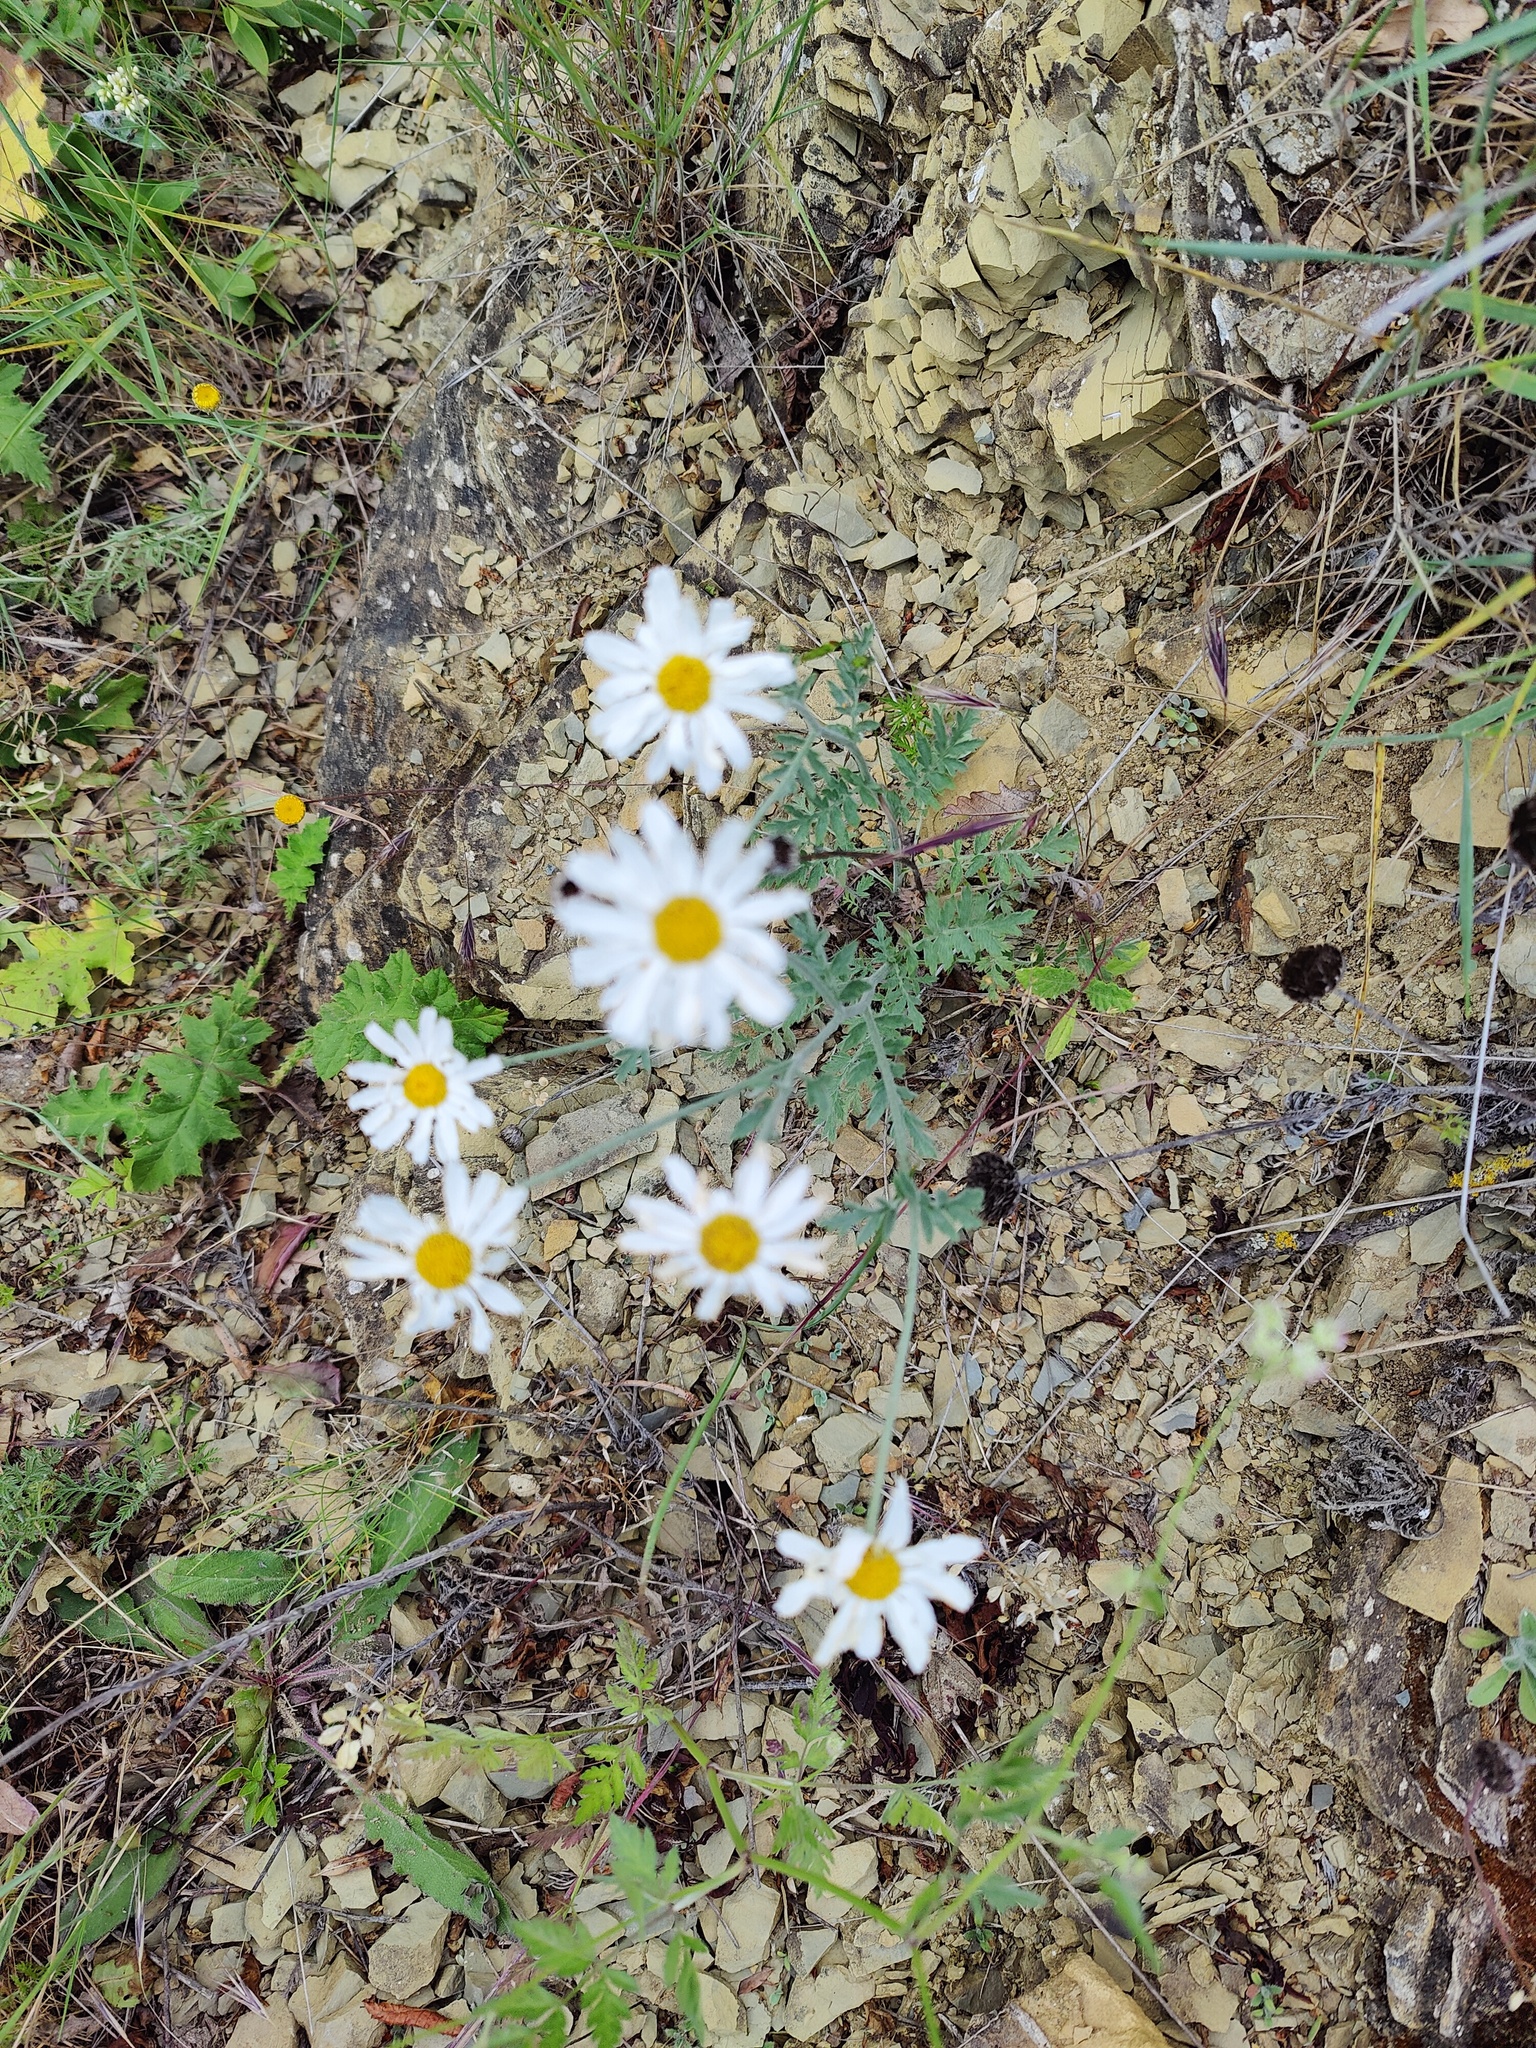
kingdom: Plantae
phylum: Tracheophyta
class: Magnoliopsida
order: Asterales
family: Asteraceae
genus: Tanacetum
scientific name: Tanacetum poteriifolium
